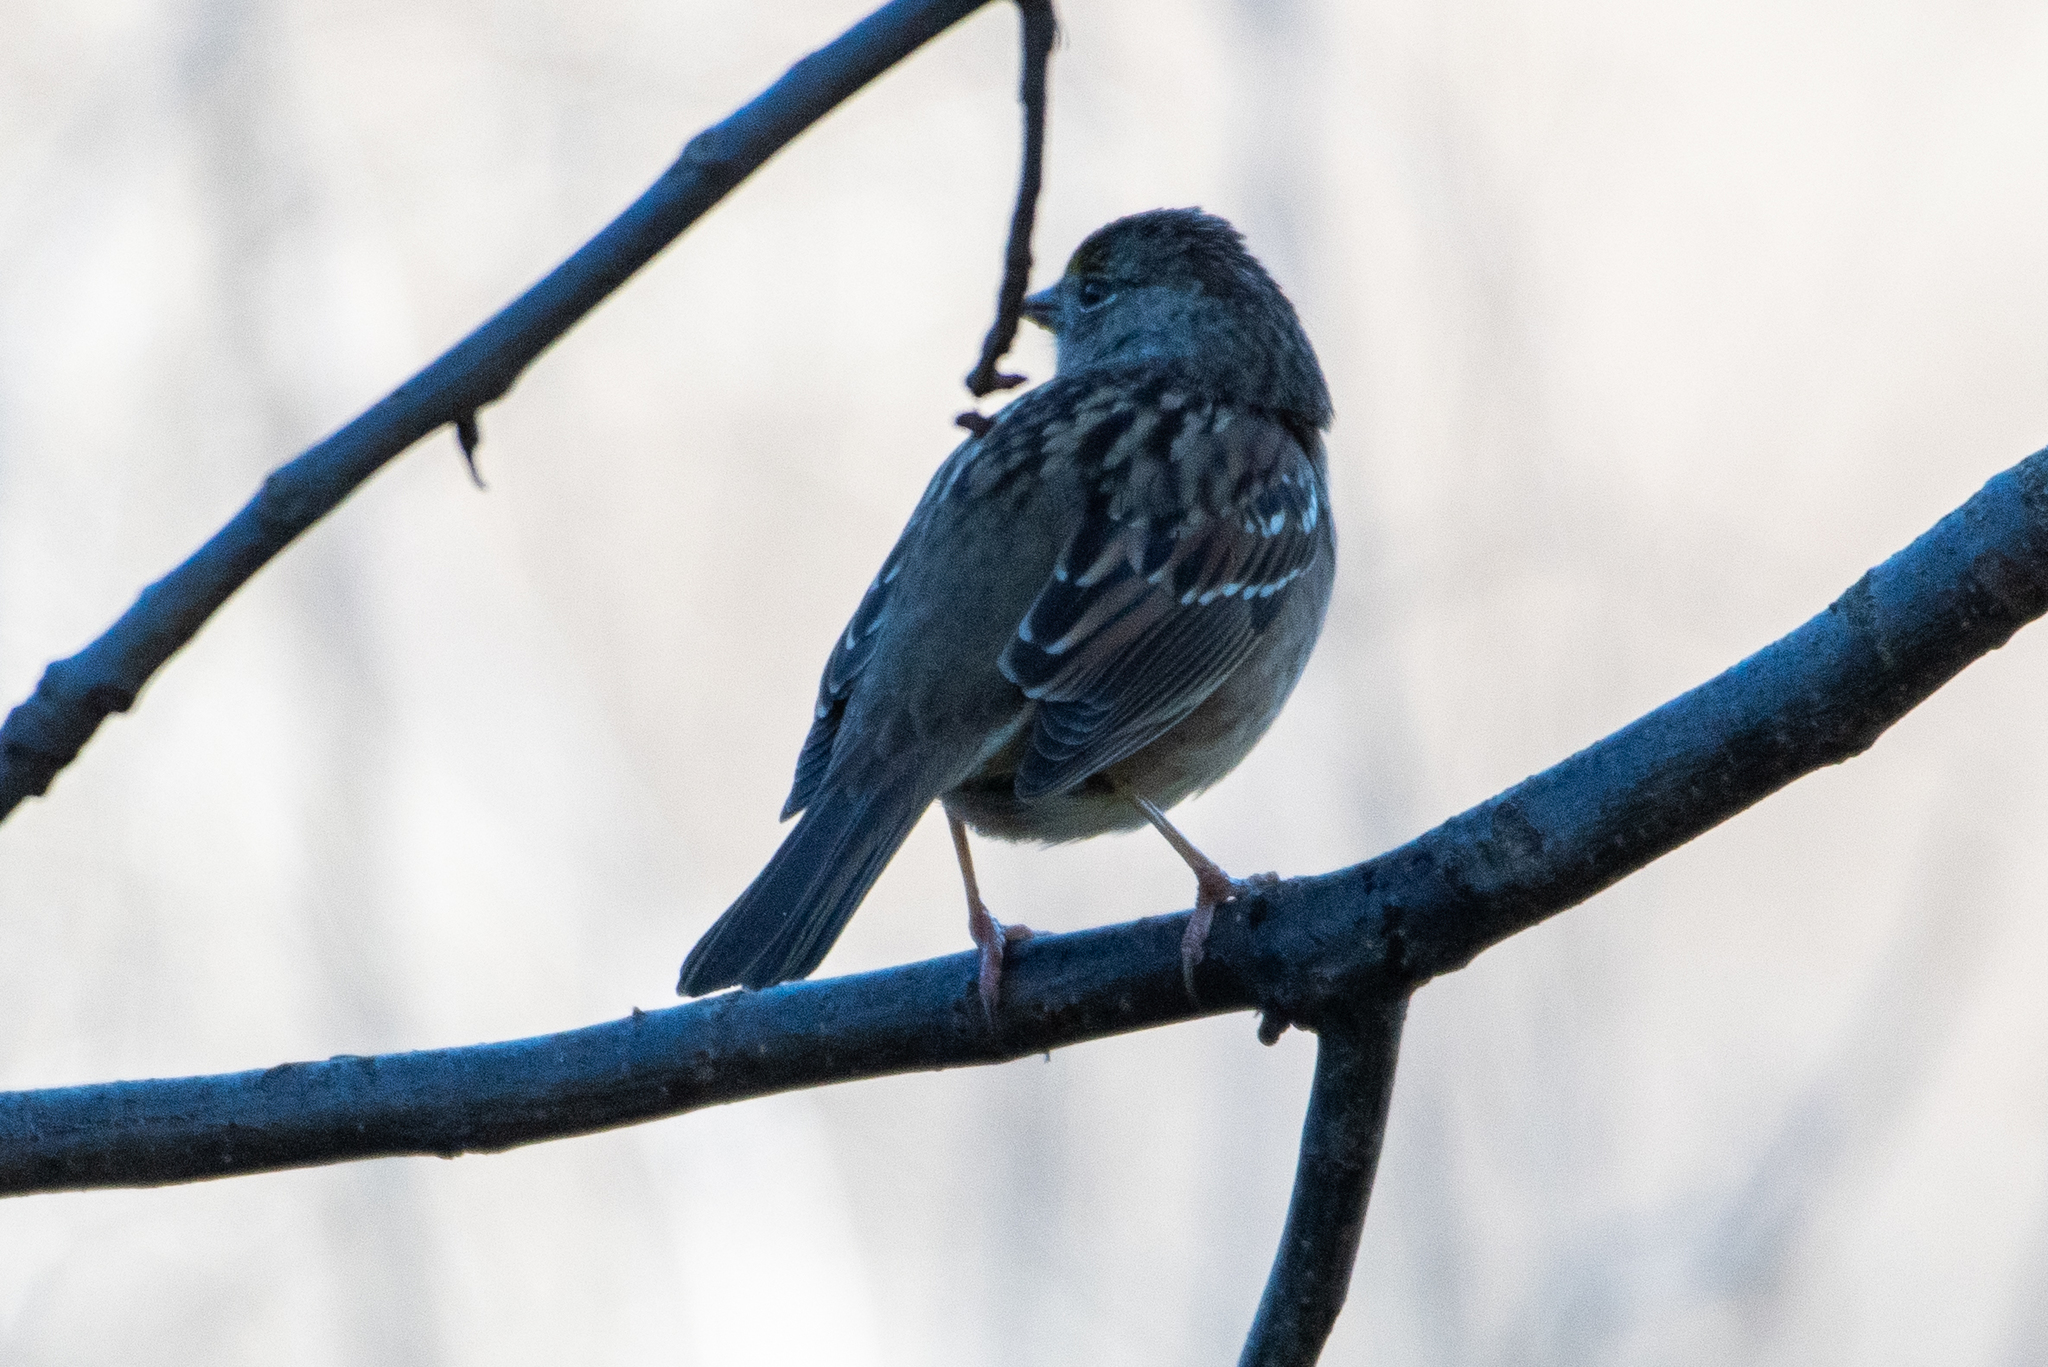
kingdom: Animalia
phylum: Chordata
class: Aves
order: Passeriformes
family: Passerellidae
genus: Zonotrichia
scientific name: Zonotrichia atricapilla
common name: Golden-crowned sparrow
